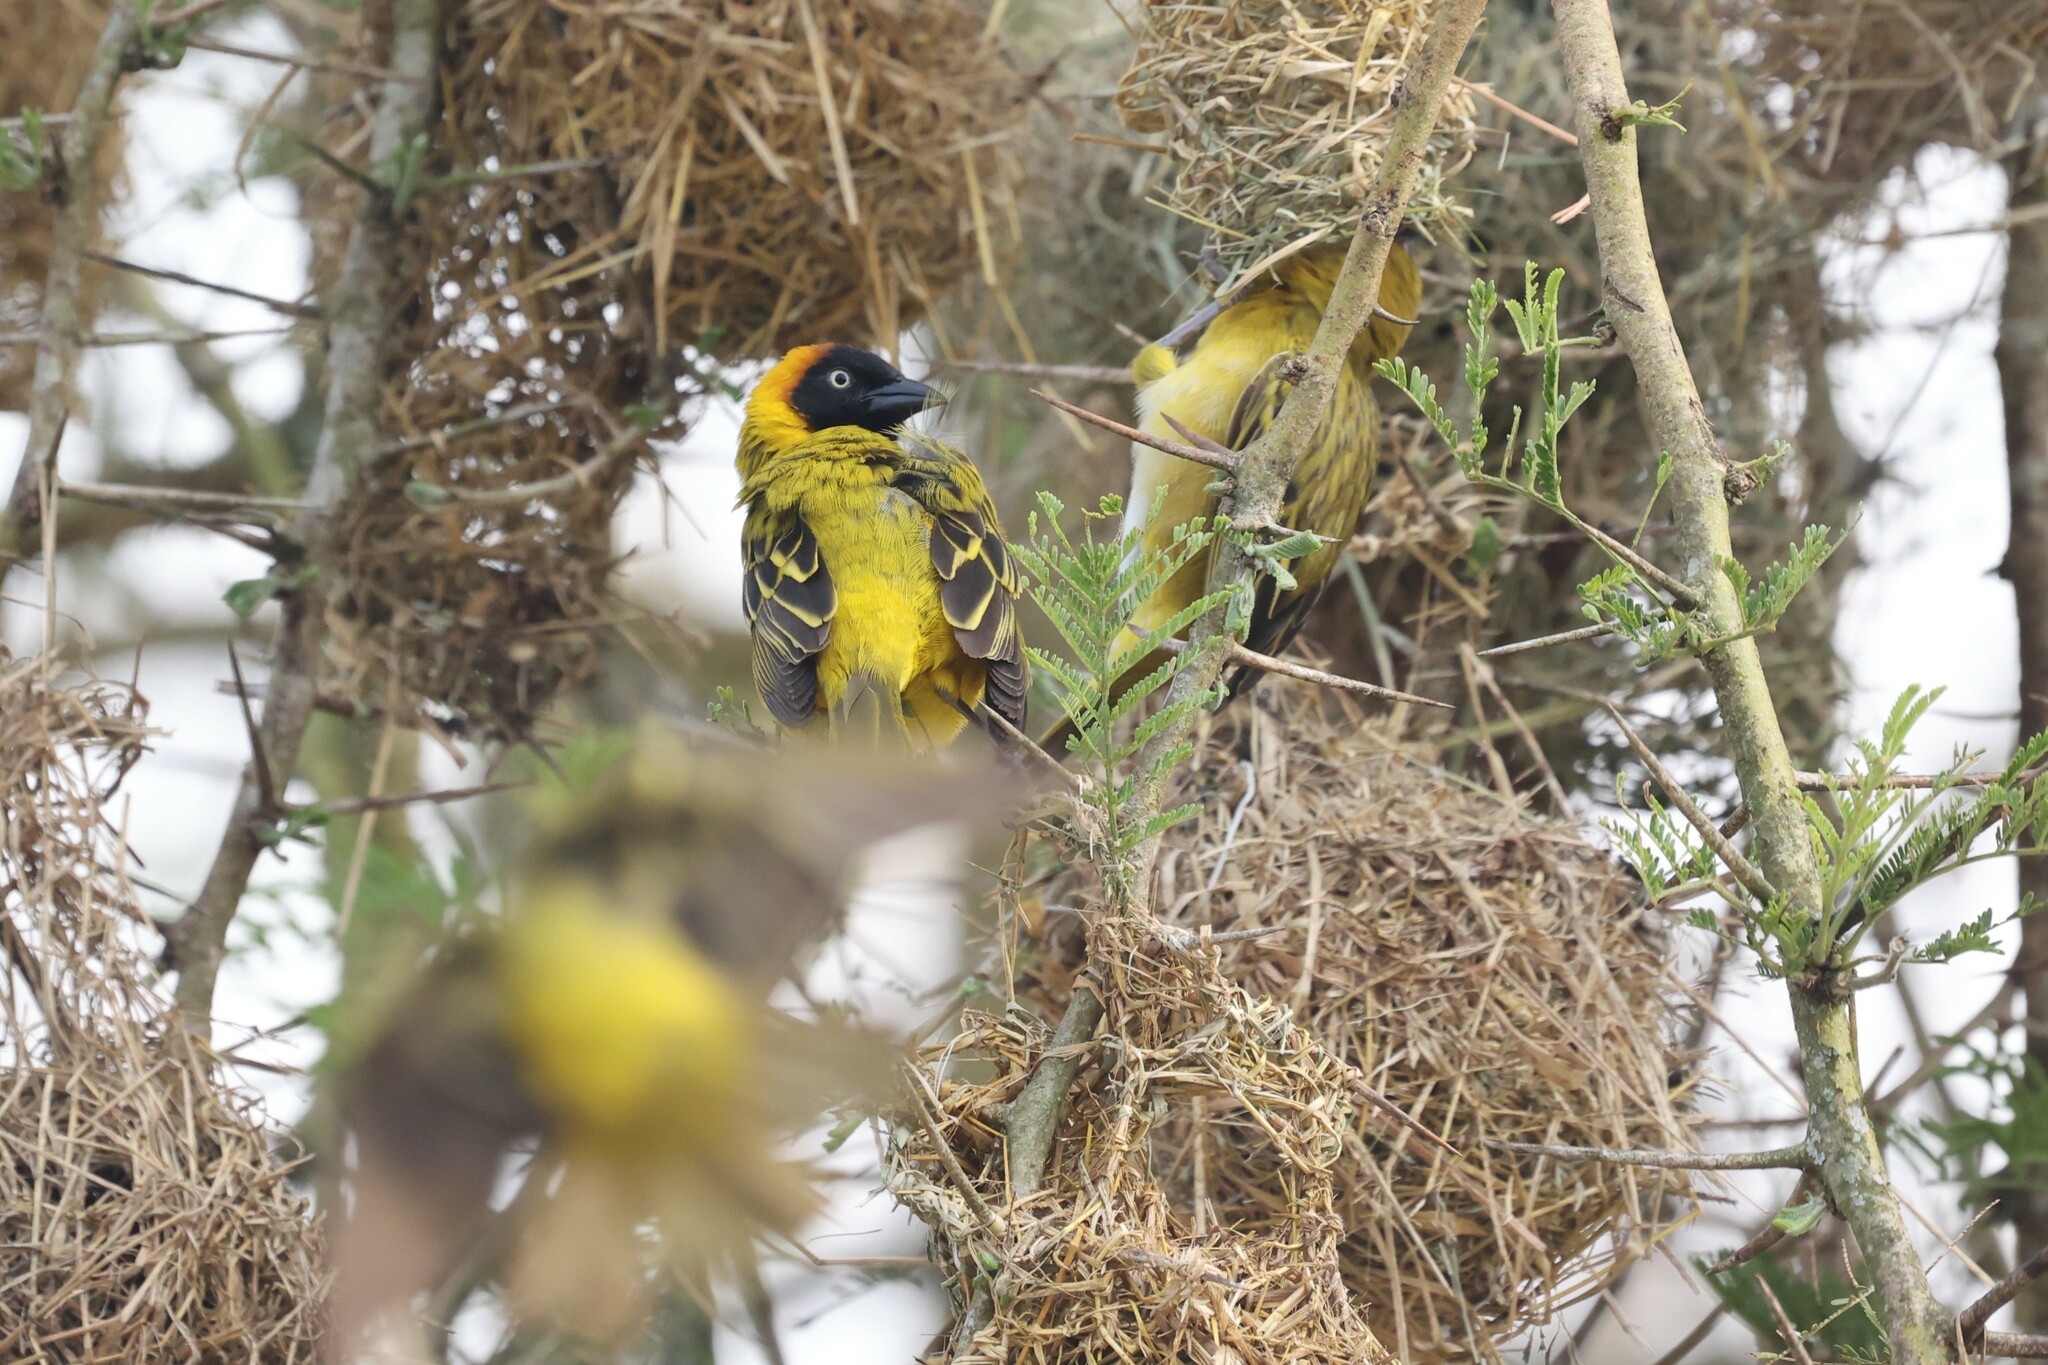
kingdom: Animalia
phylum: Chordata
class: Aves
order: Passeriformes
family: Ploceidae
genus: Ploceus
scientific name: Ploceus intermedius
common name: Lesser masked weaver
